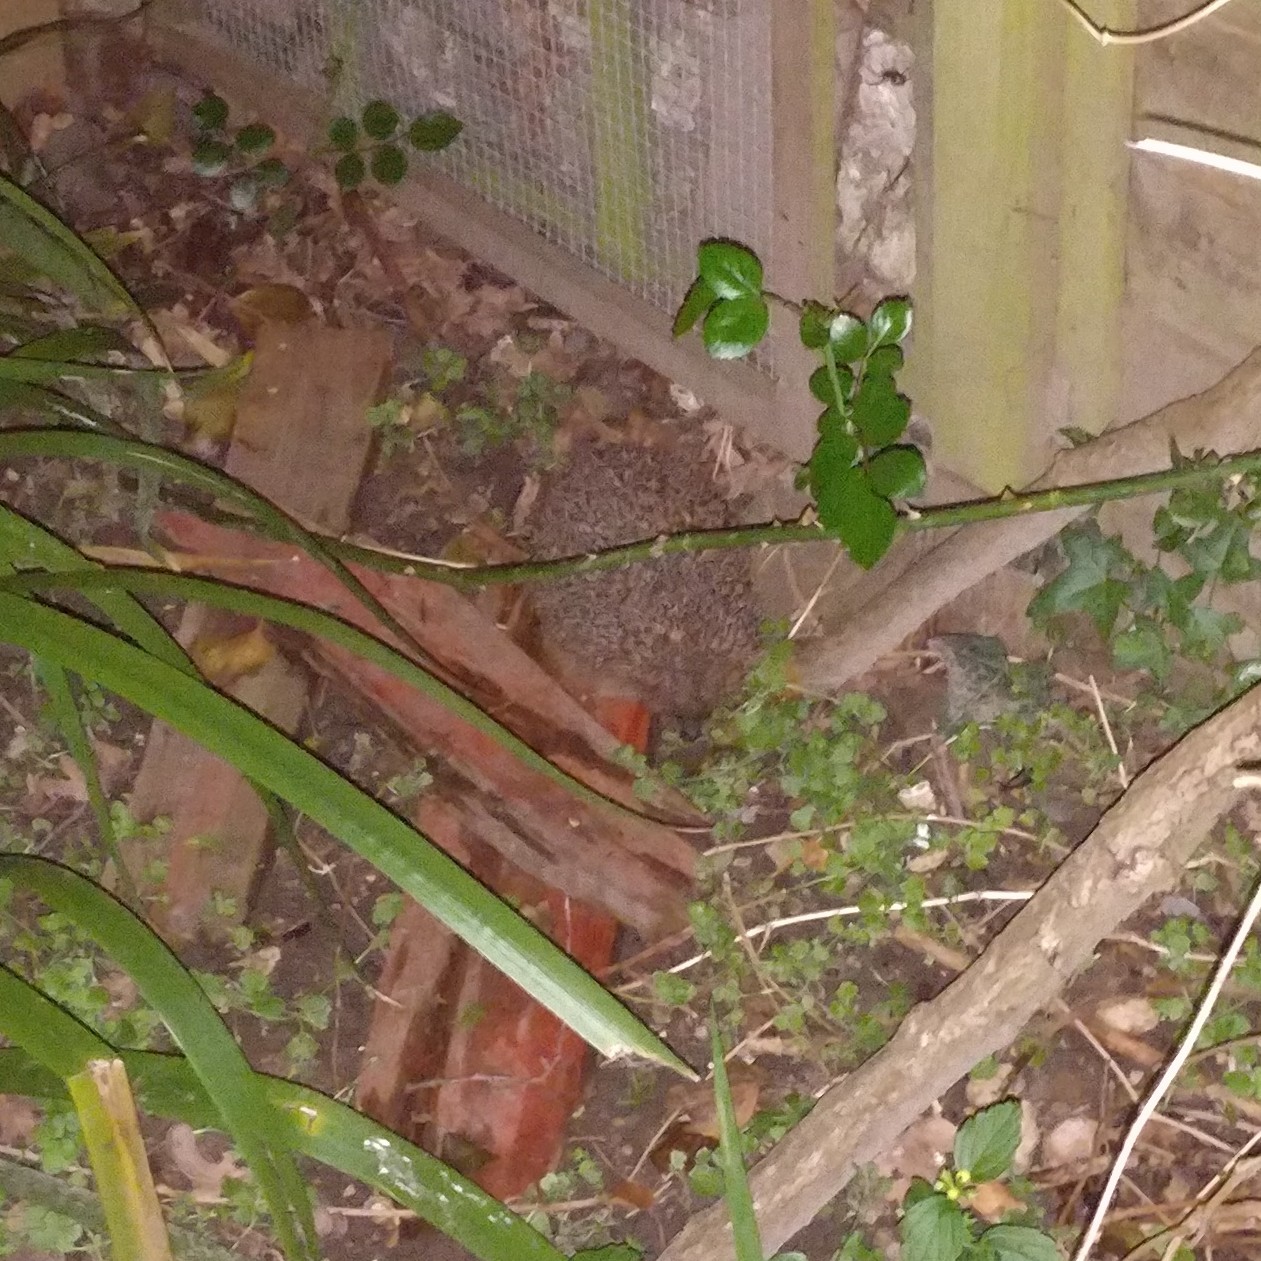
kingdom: Animalia
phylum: Chordata
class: Mammalia
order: Erinaceomorpha
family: Erinaceidae
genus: Erinaceus
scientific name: Erinaceus europaeus
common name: West european hedgehog
